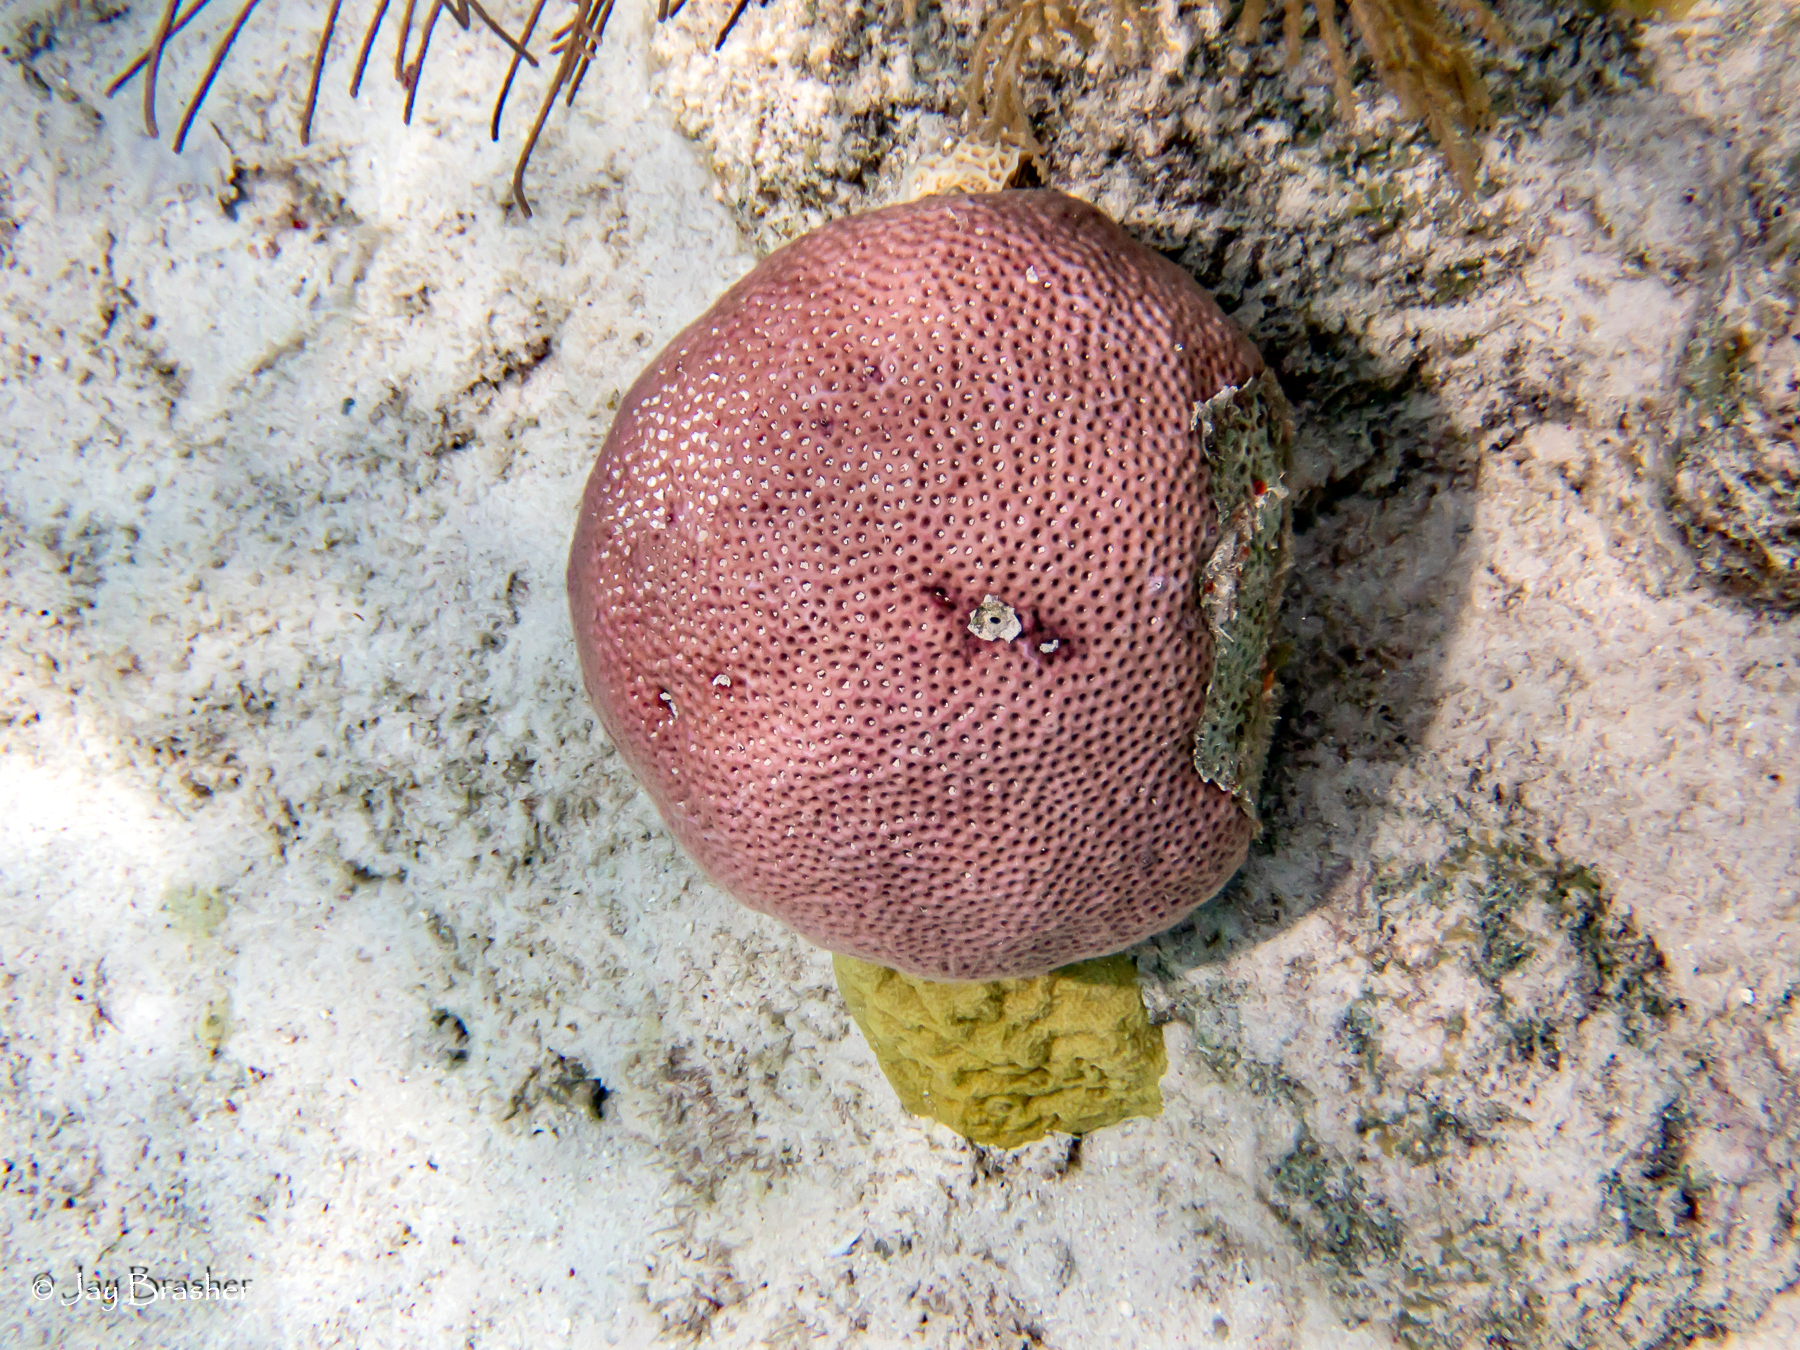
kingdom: Animalia
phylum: Cnidaria
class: Anthozoa
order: Scleractinia
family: Rhizangiidae
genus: Siderastrea
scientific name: Siderastrea siderea
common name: Massive starlet coral
